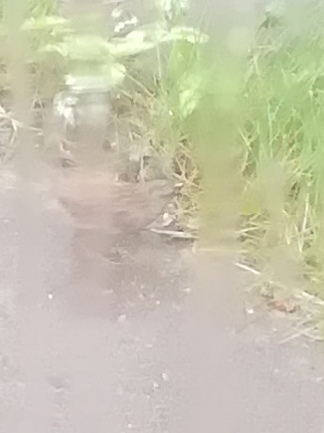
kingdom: Animalia
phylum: Chordata
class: Aves
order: Passeriformes
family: Prunellidae
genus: Prunella
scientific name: Prunella modularis
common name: Dunnock
